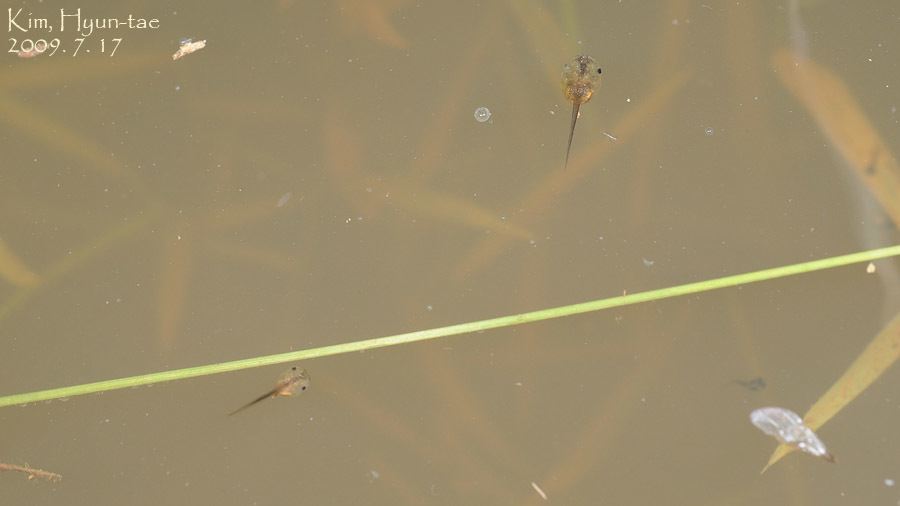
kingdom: Animalia
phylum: Chordata
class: Amphibia
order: Anura
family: Microhylidae
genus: Kaloula
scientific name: Kaloula borealis
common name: Boreal digging frog
